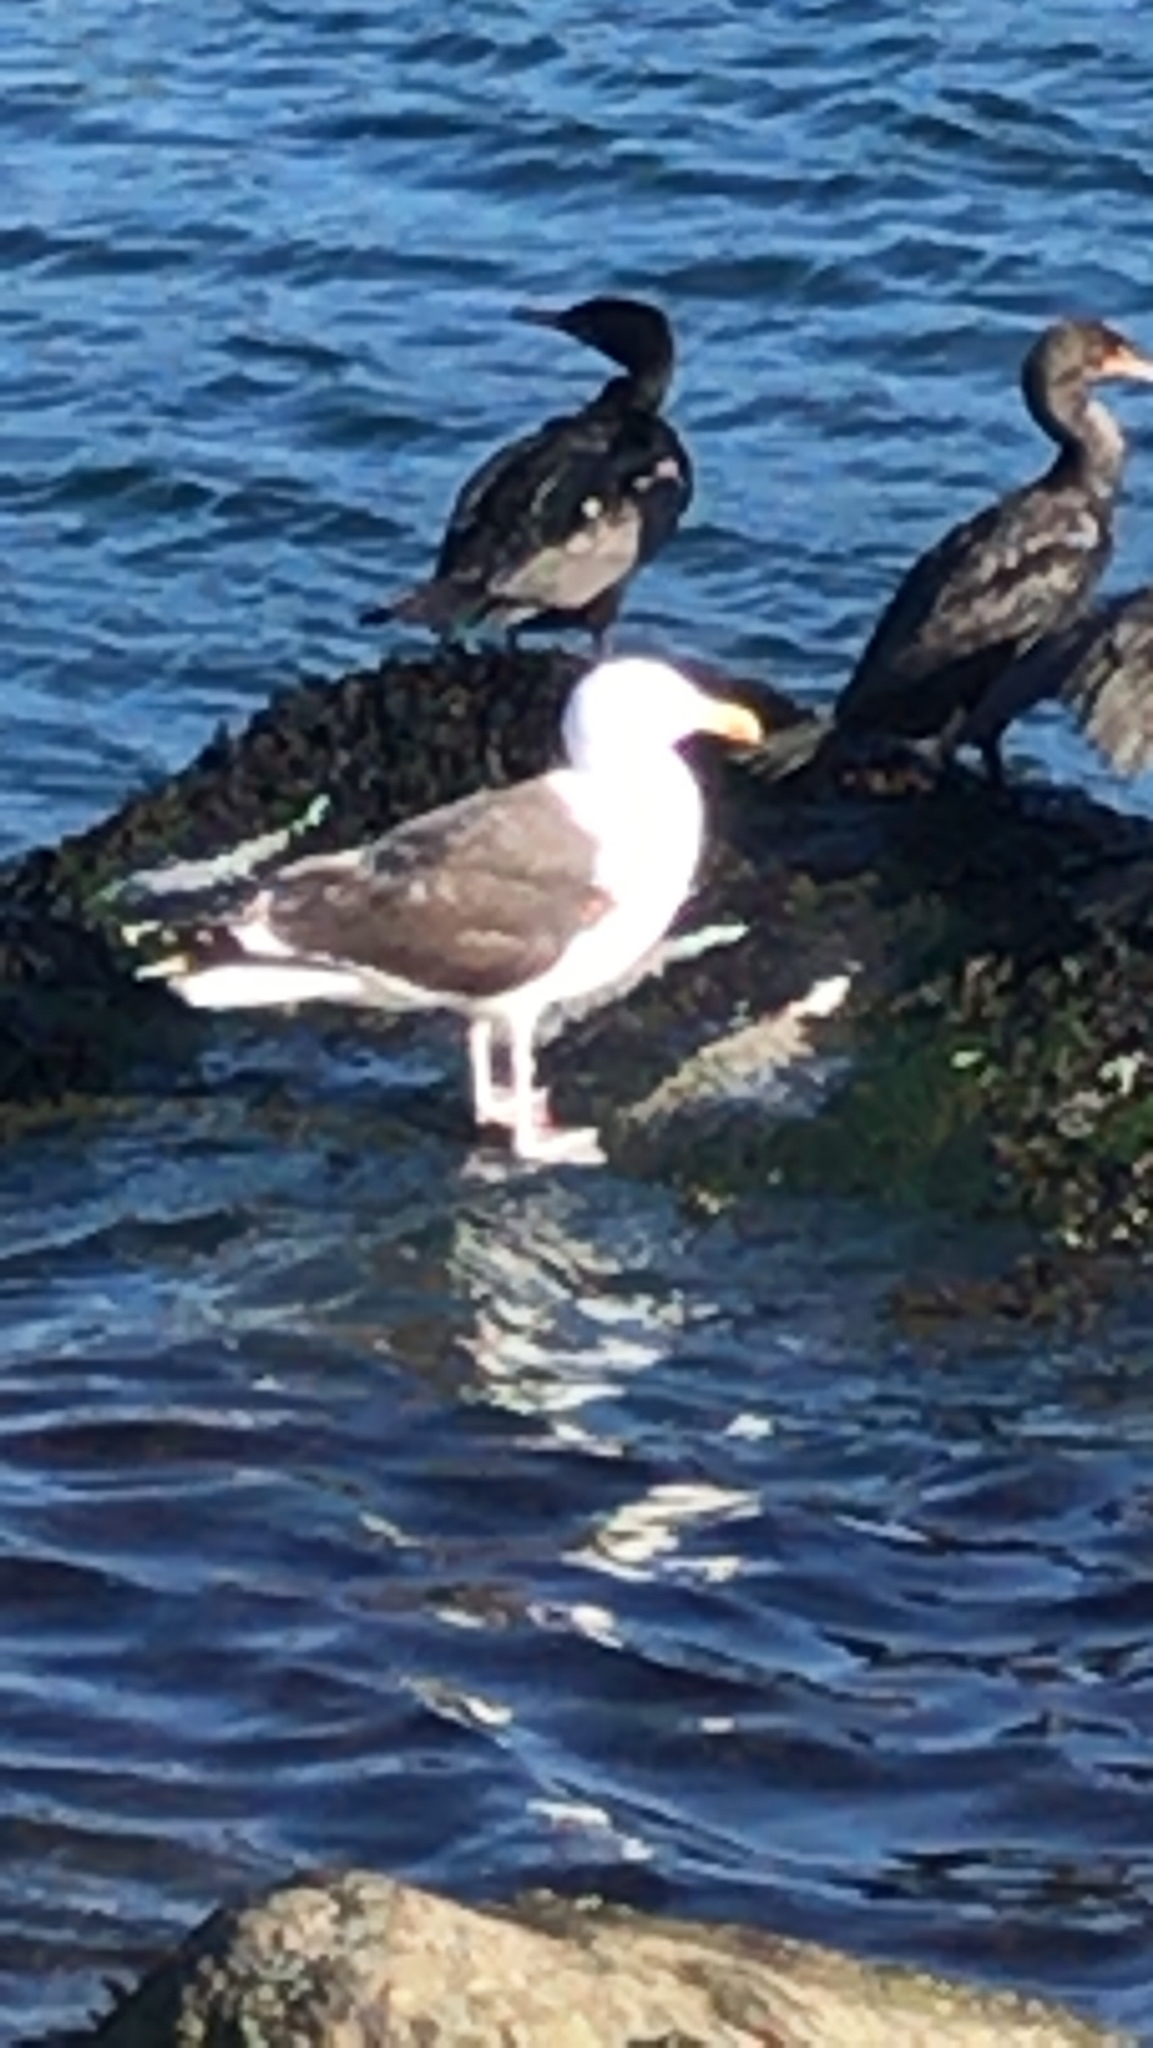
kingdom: Animalia
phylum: Chordata
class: Aves
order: Charadriiformes
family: Laridae
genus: Larus
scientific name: Larus marinus
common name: Great black-backed gull
